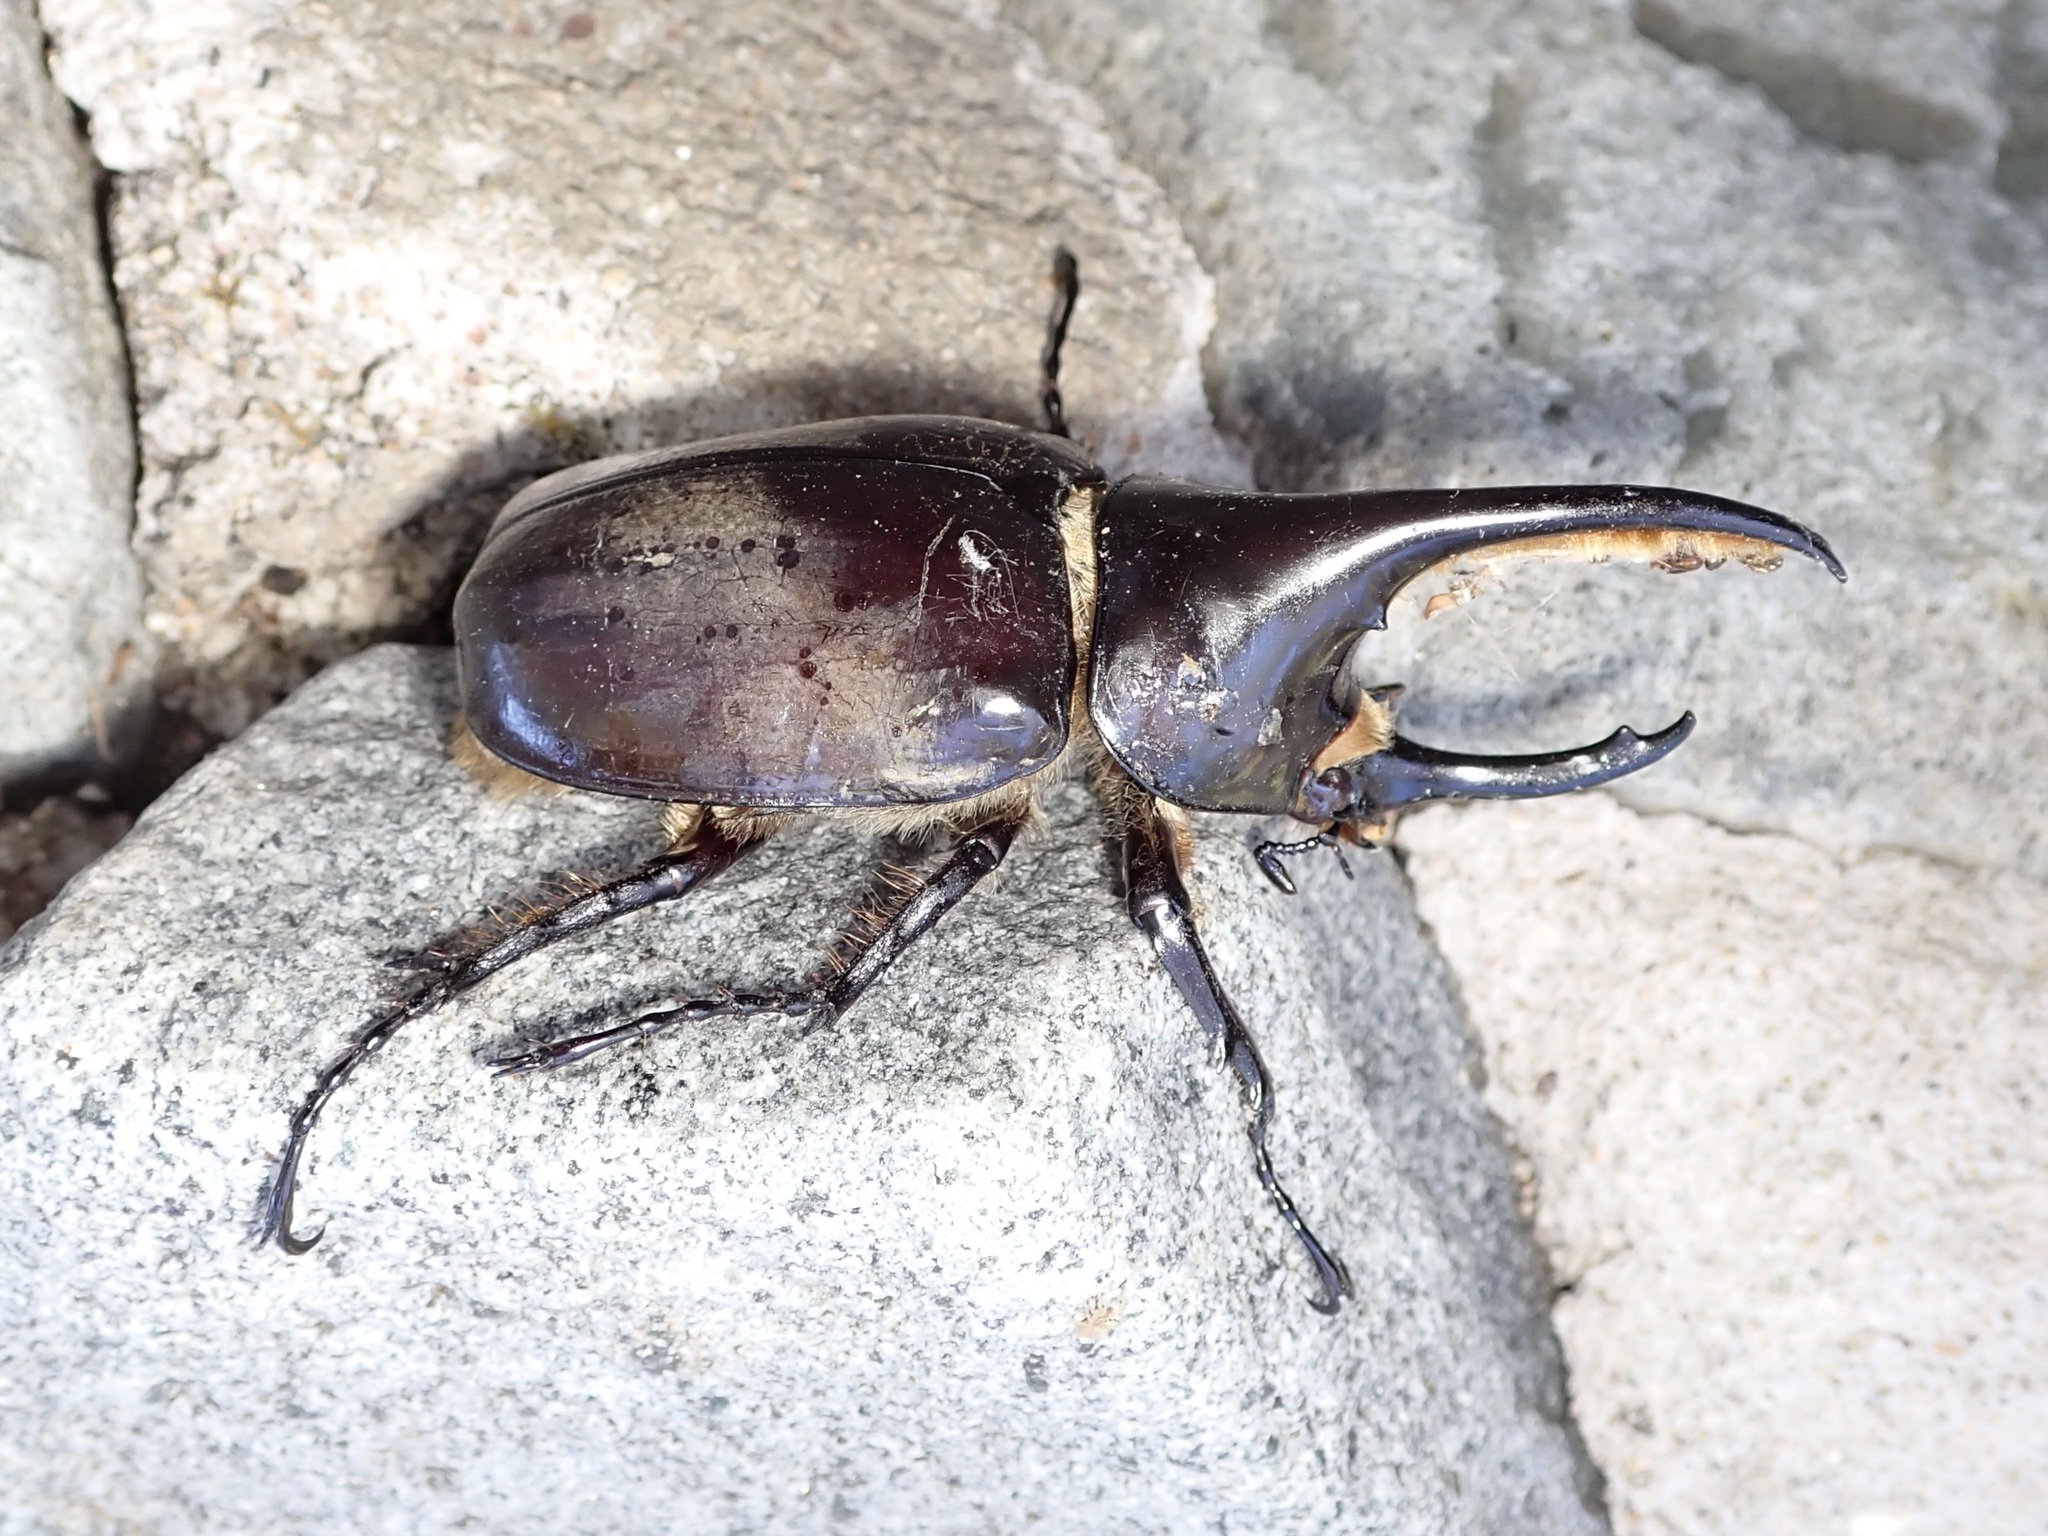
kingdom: Animalia
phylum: Arthropoda
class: Insecta
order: Coleoptera
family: Scarabaeidae
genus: Dynastes
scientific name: Dynastes grantii
